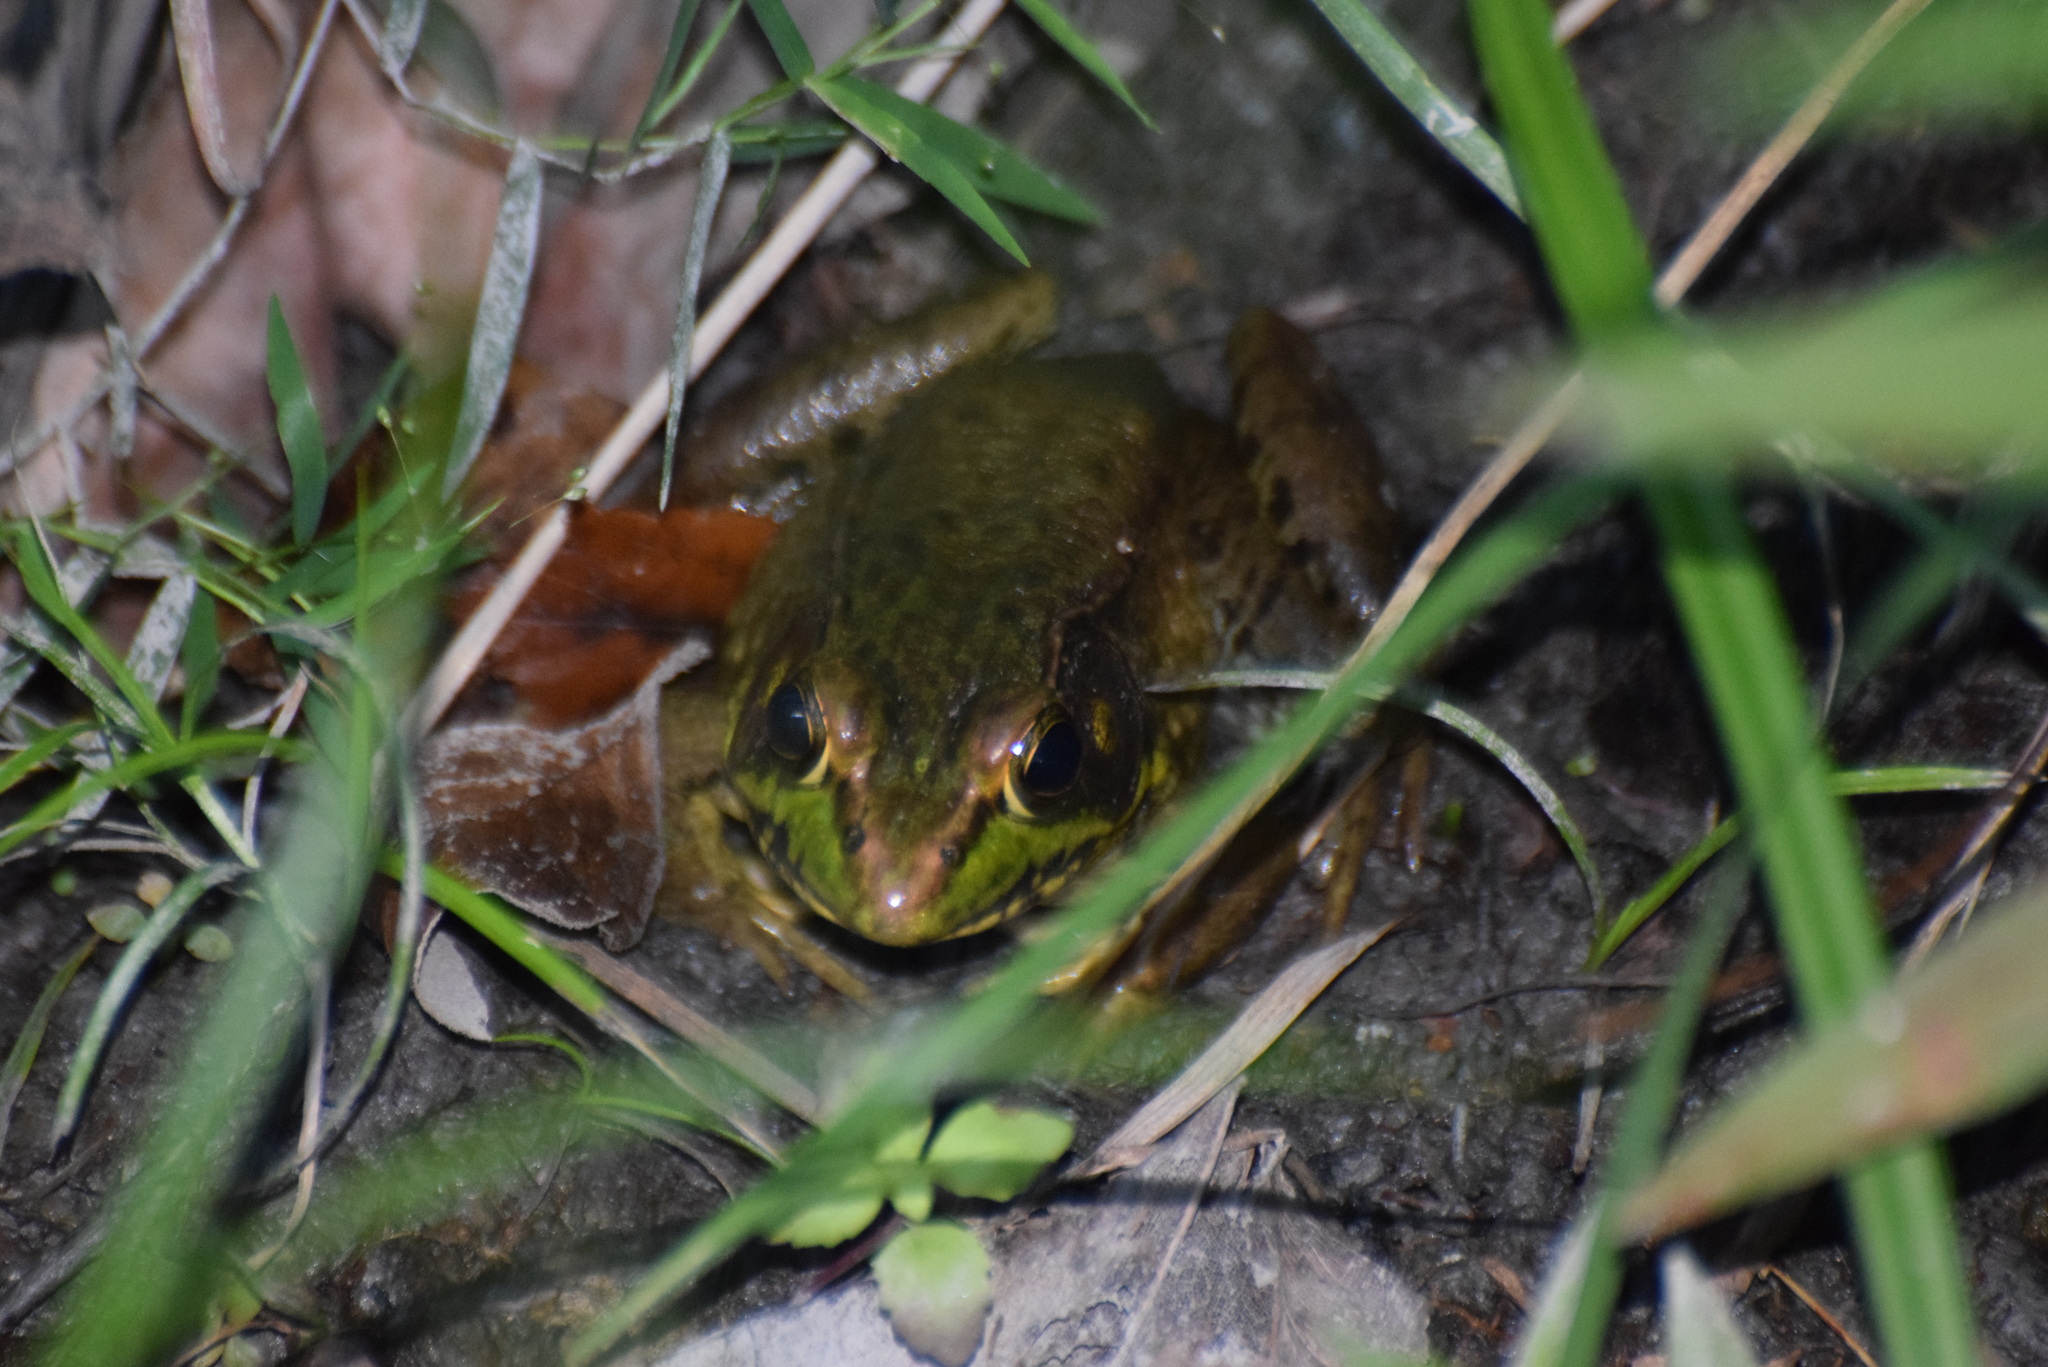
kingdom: Animalia
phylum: Chordata
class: Amphibia
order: Anura
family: Ranidae
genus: Lithobates
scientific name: Lithobates clamitans
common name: Green frog
